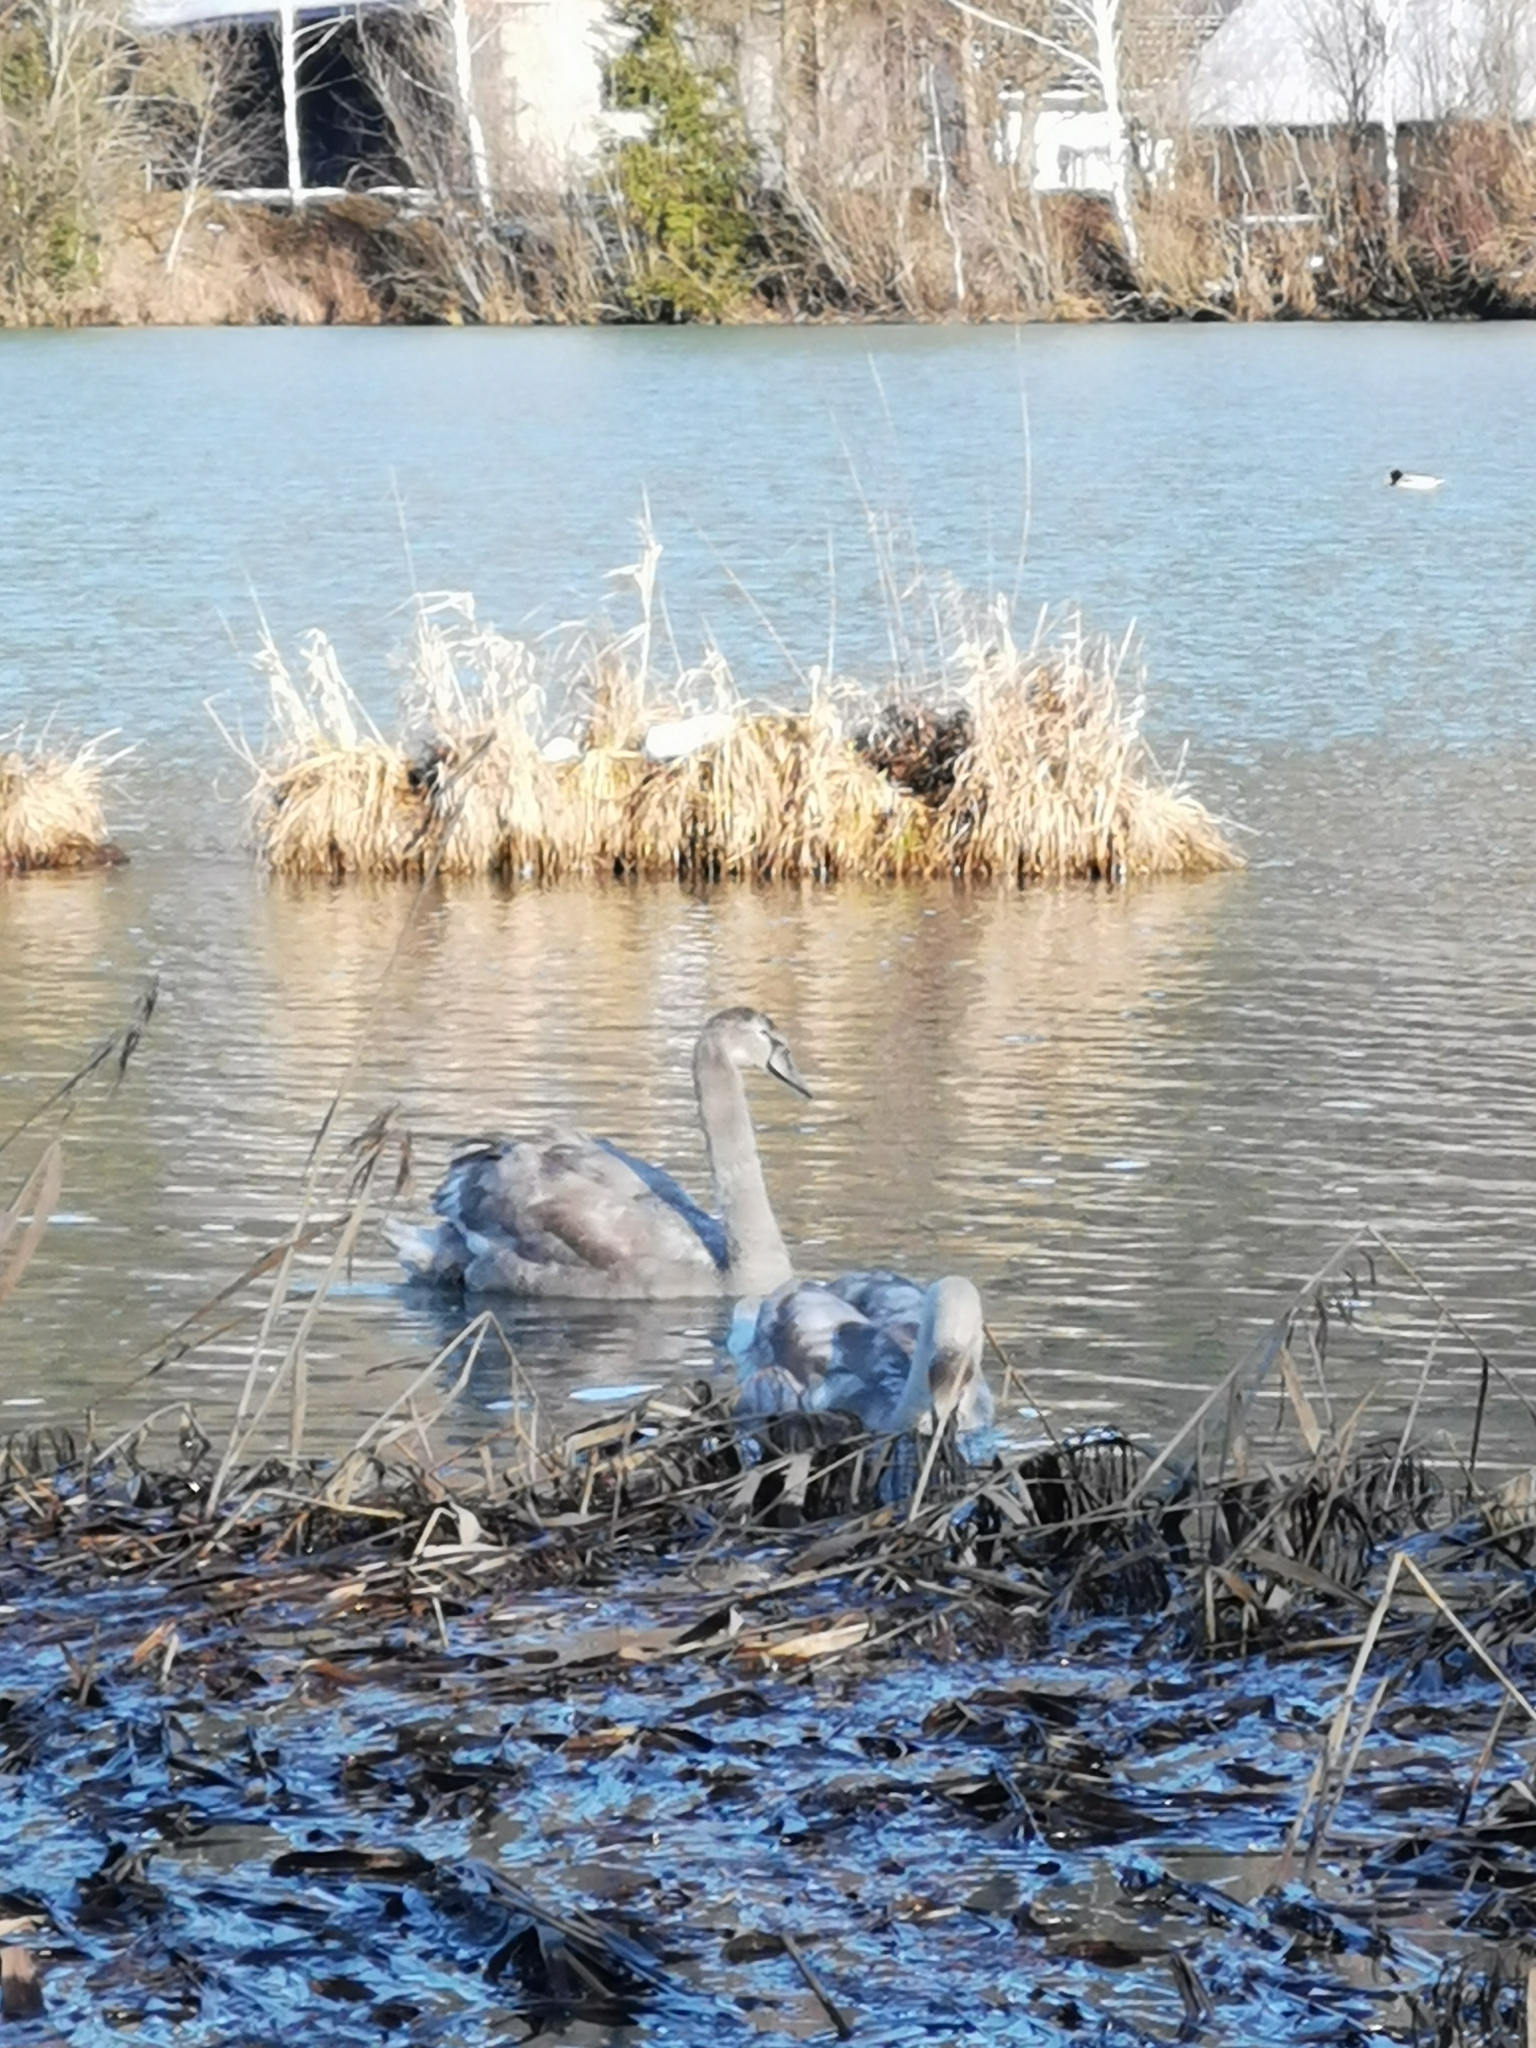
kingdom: Animalia
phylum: Chordata
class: Aves
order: Anseriformes
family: Anatidae
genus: Cygnus
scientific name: Cygnus olor
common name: Mute swan
